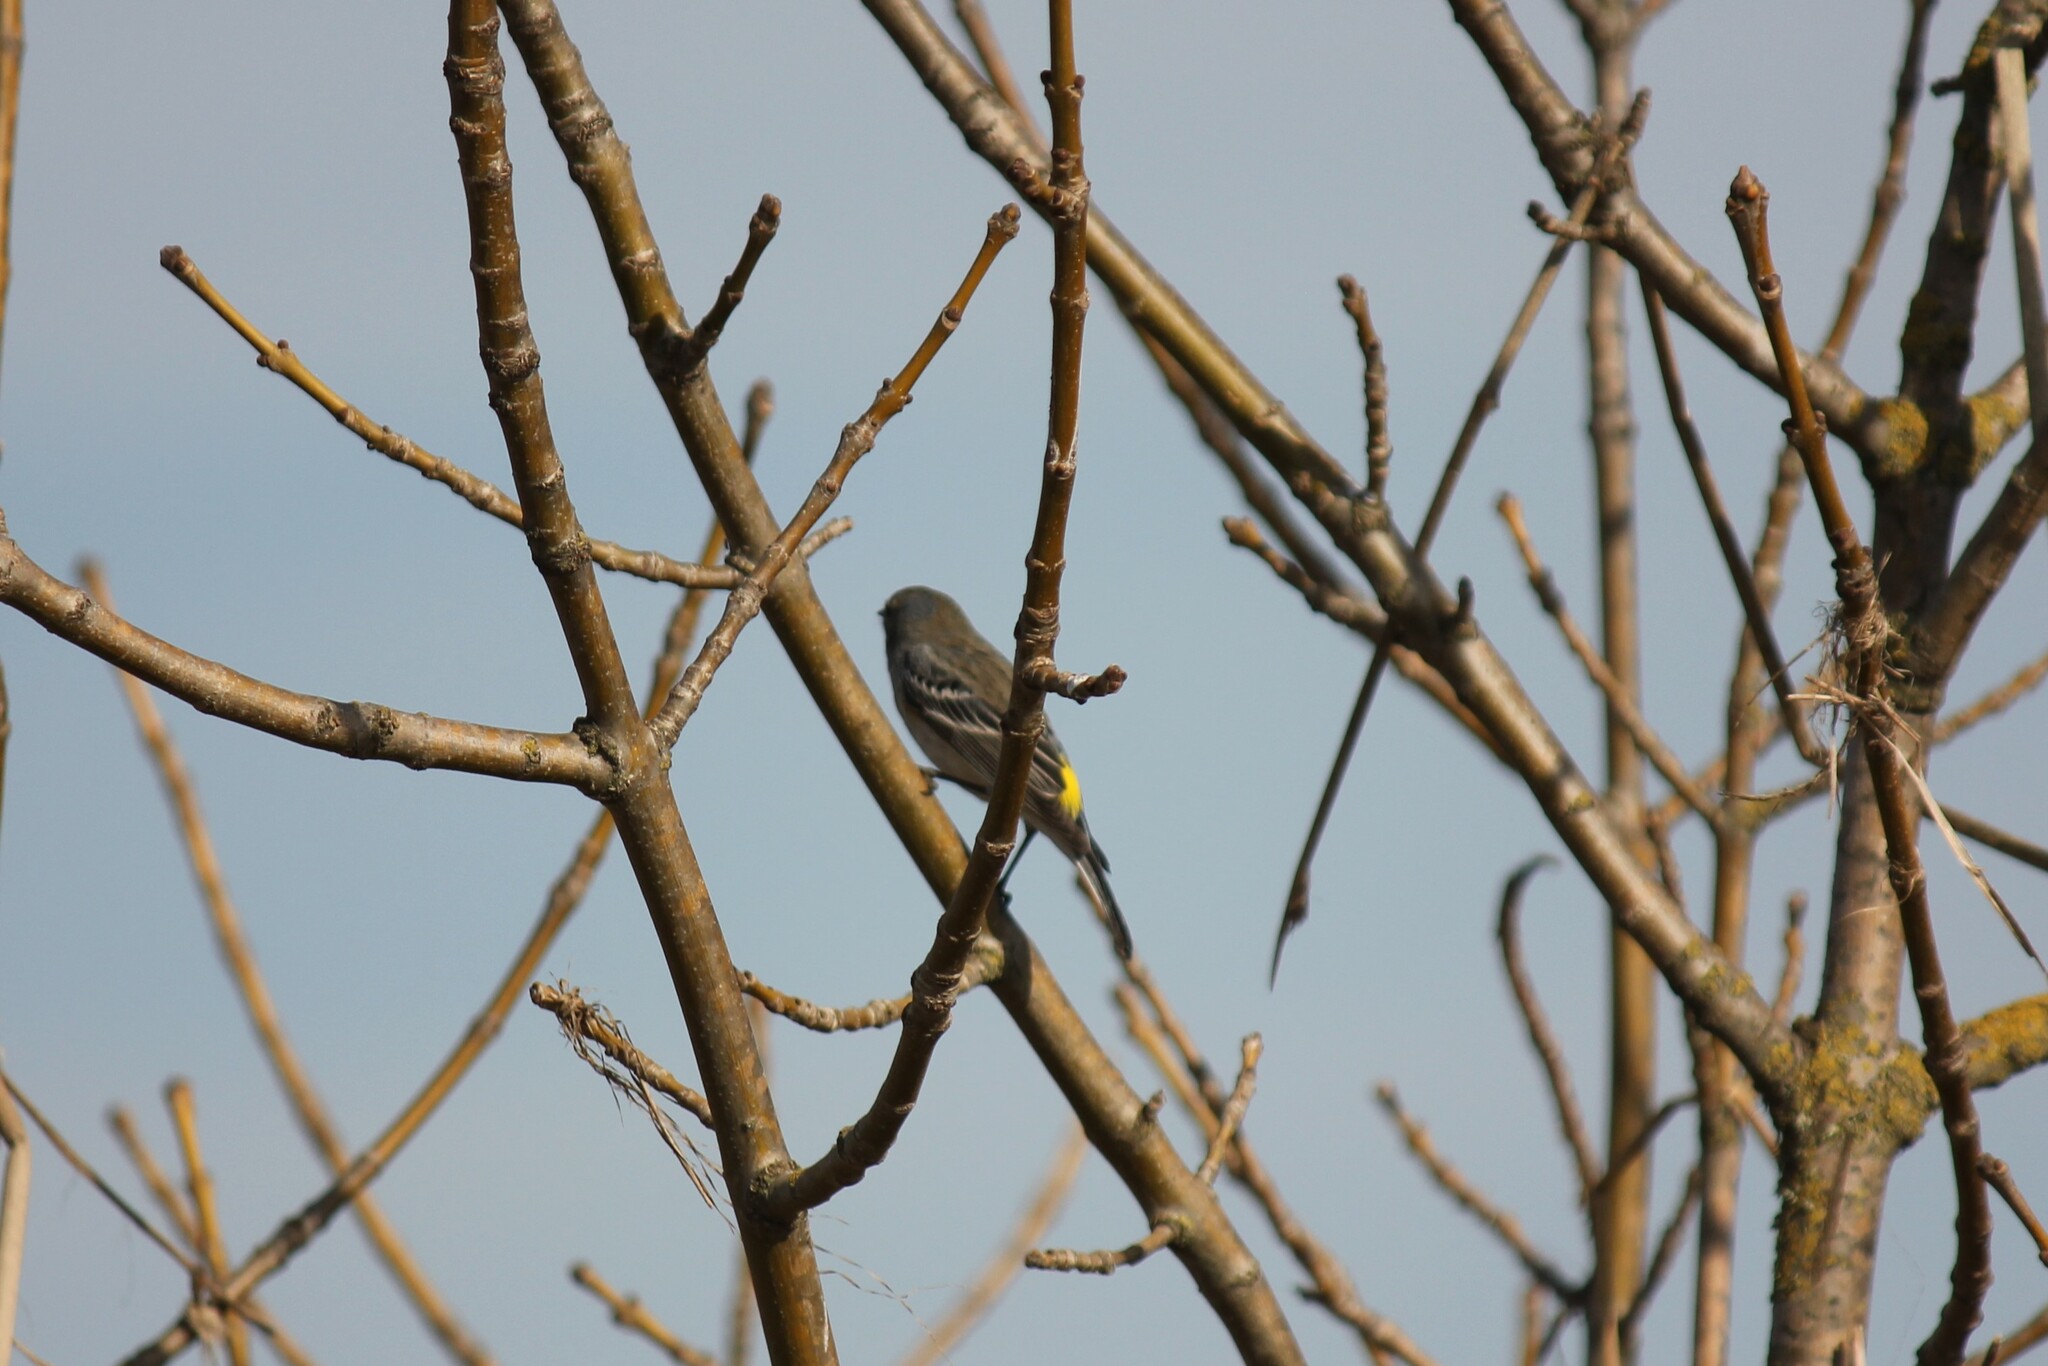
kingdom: Animalia
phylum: Chordata
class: Aves
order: Passeriformes
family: Parulidae
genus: Setophaga
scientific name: Setophaga coronata
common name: Myrtle warbler
